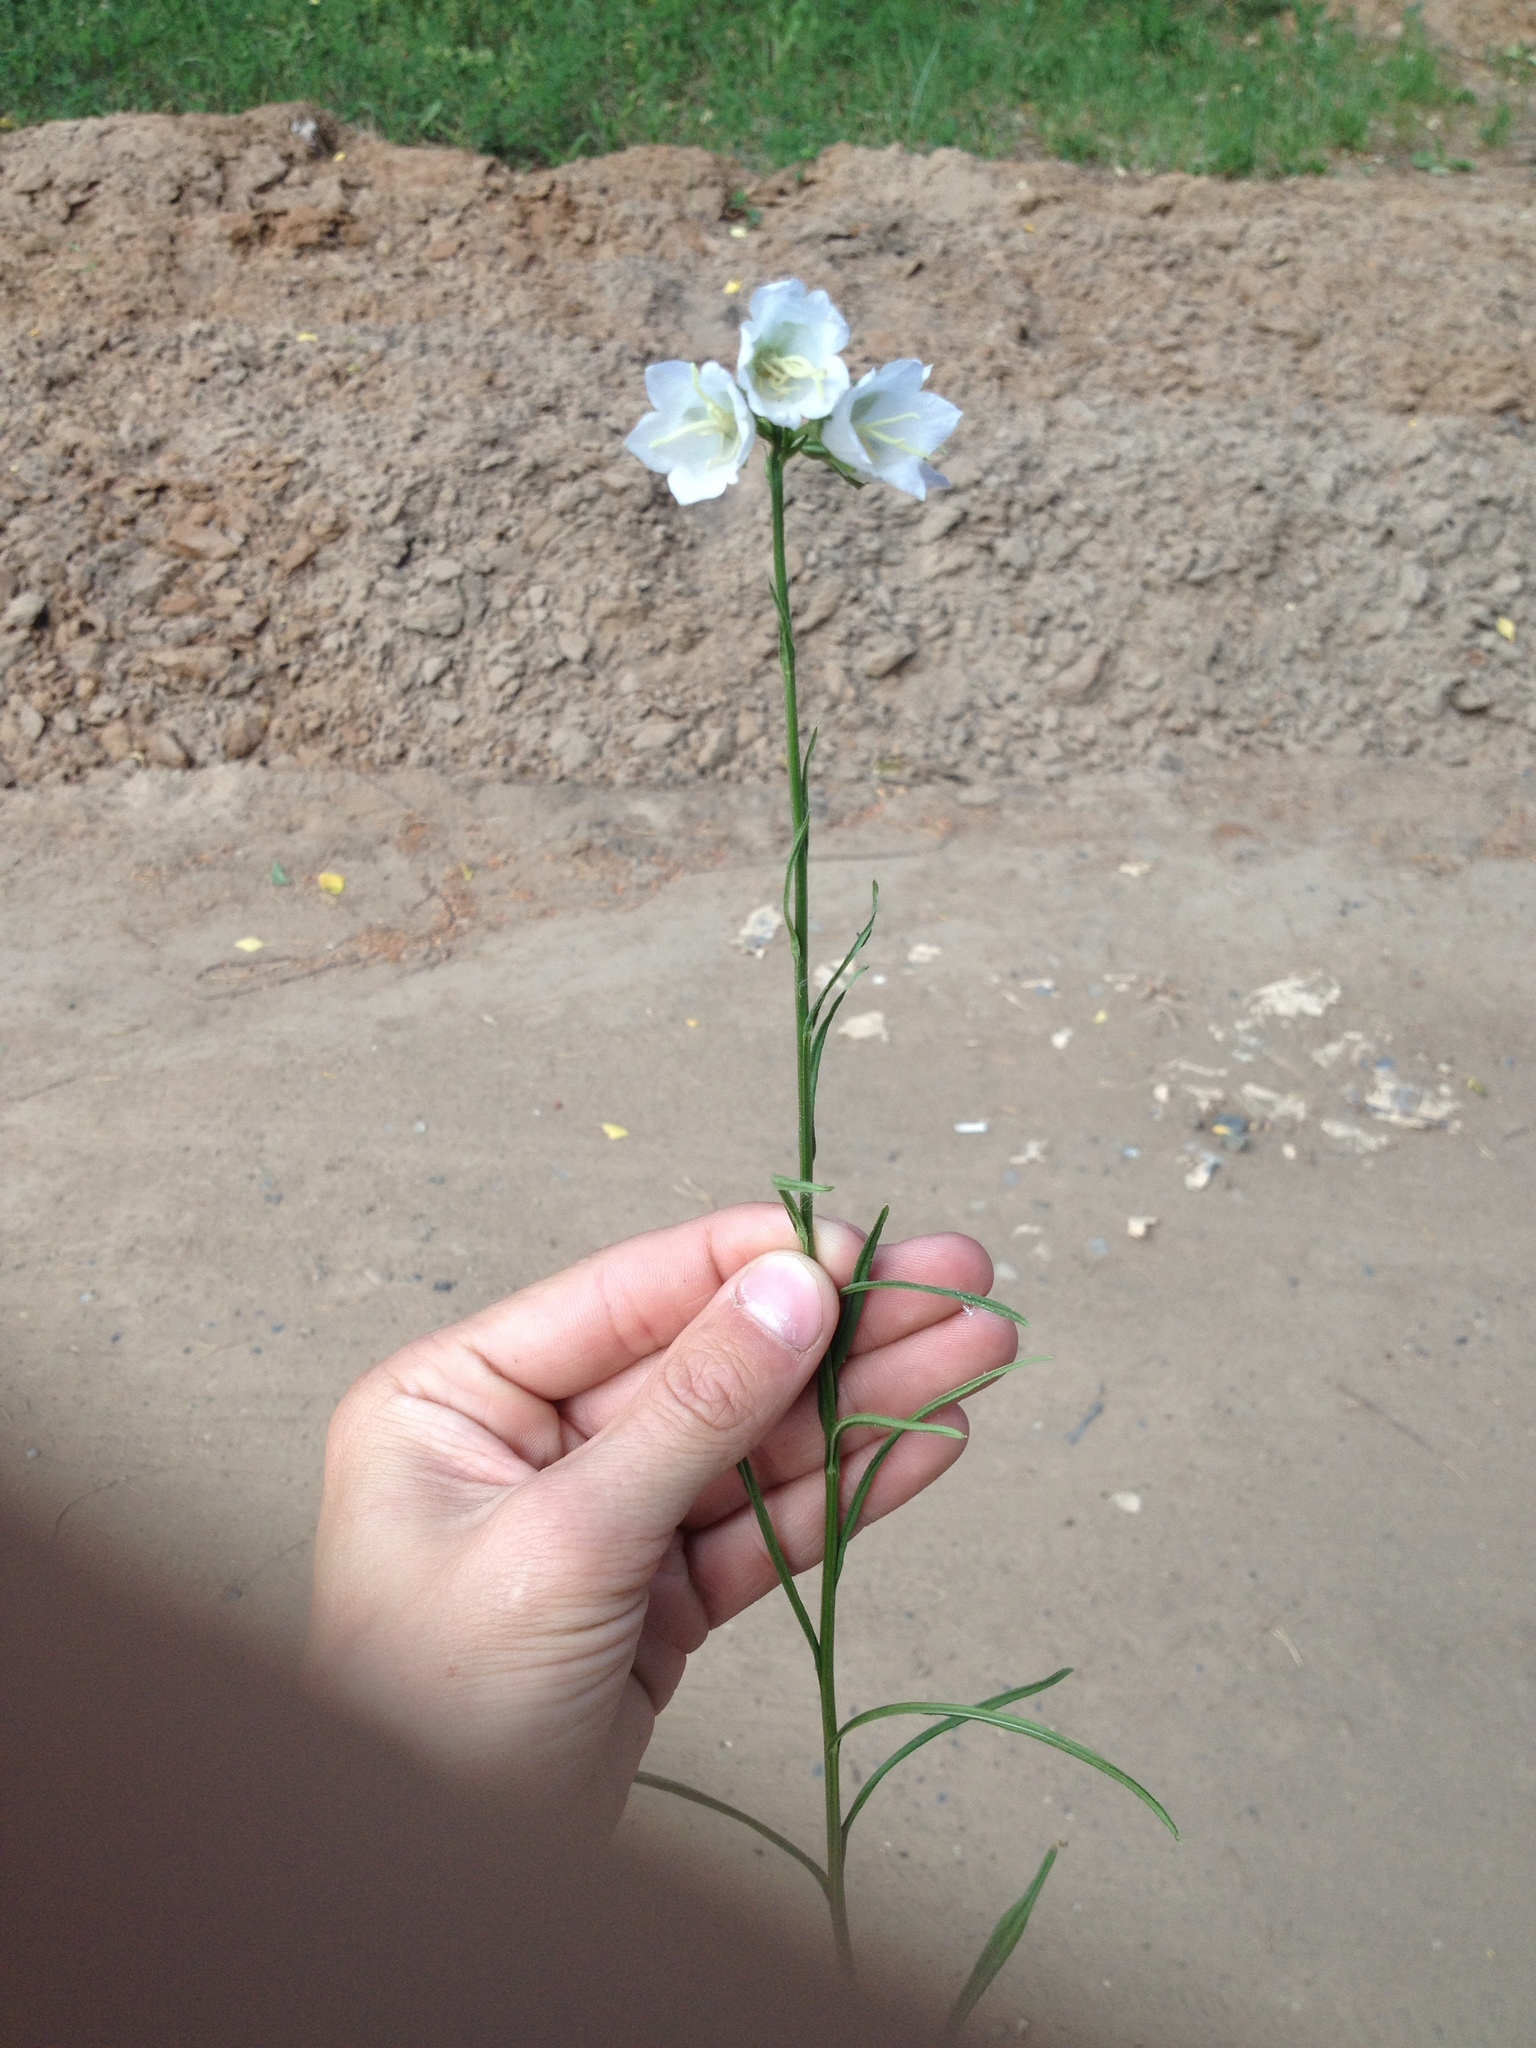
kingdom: Plantae
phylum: Tracheophyta
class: Magnoliopsida
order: Asterales
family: Campanulaceae
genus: Campanula
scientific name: Campanula persicifolia
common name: Peach-leaved bellflower
